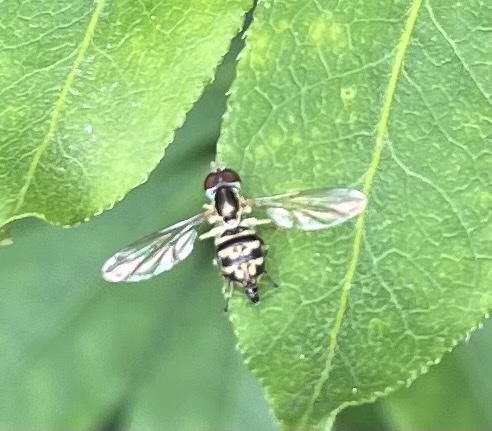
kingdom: Animalia
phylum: Arthropoda
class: Insecta
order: Diptera
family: Syrphidae
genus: Toxomerus
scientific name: Toxomerus geminatus
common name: Eastern calligrapher
